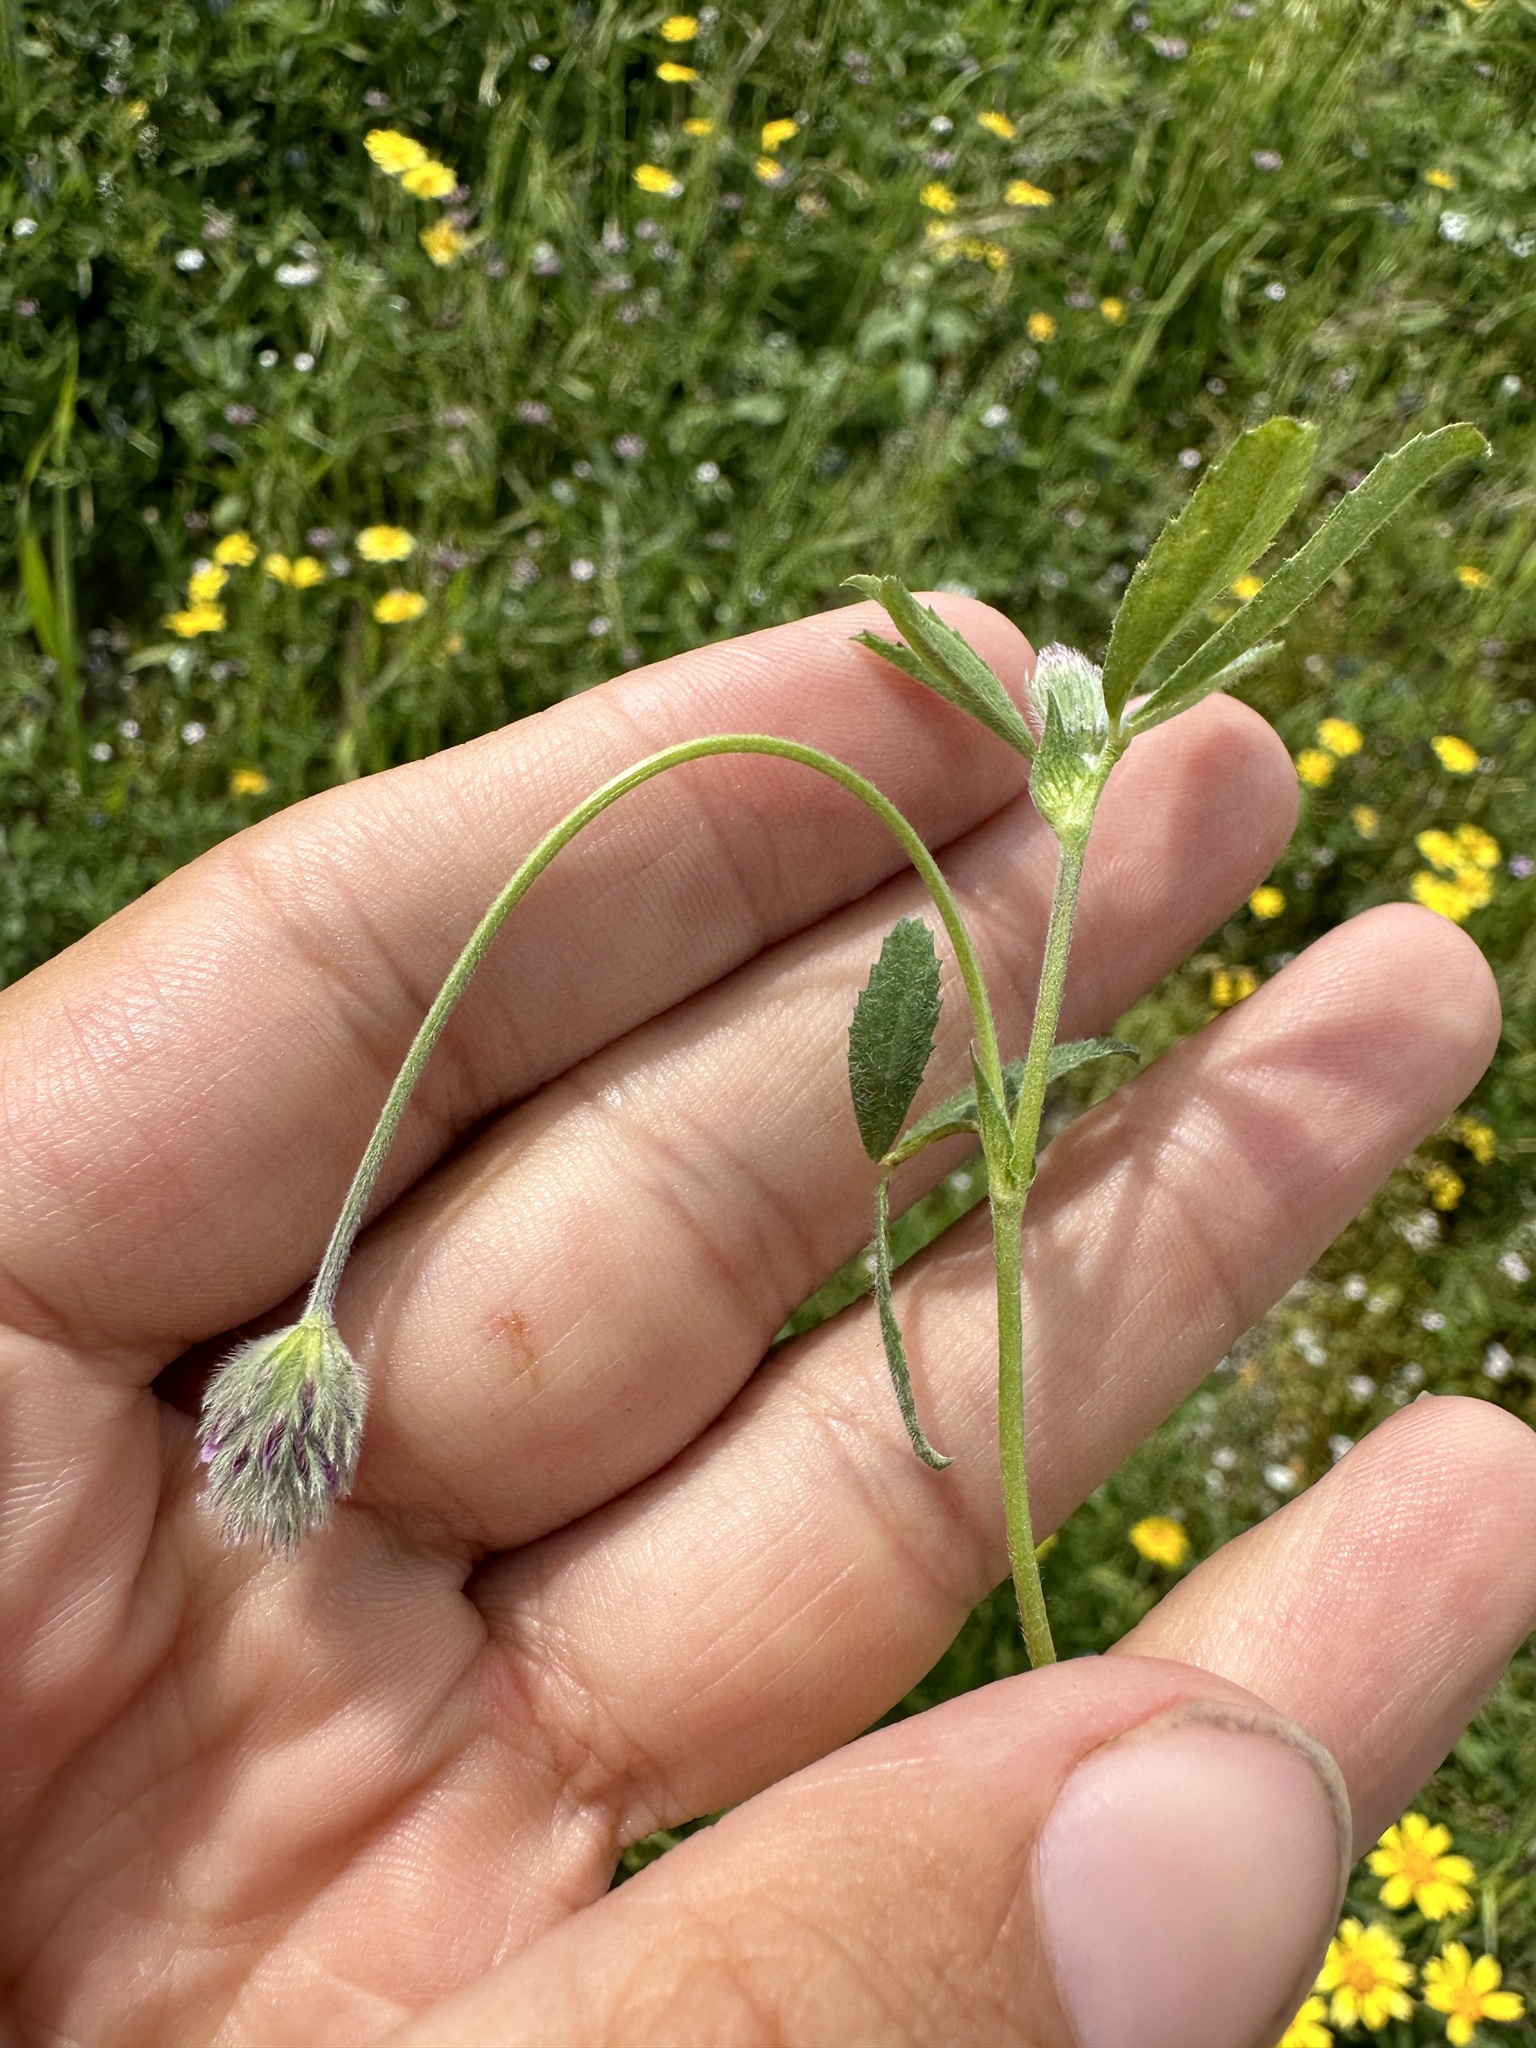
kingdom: Plantae
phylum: Tracheophyta
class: Magnoliopsida
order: Fabales
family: Fabaceae
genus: Trifolium
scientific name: Trifolium albopurpureum
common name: Rancheria clover
